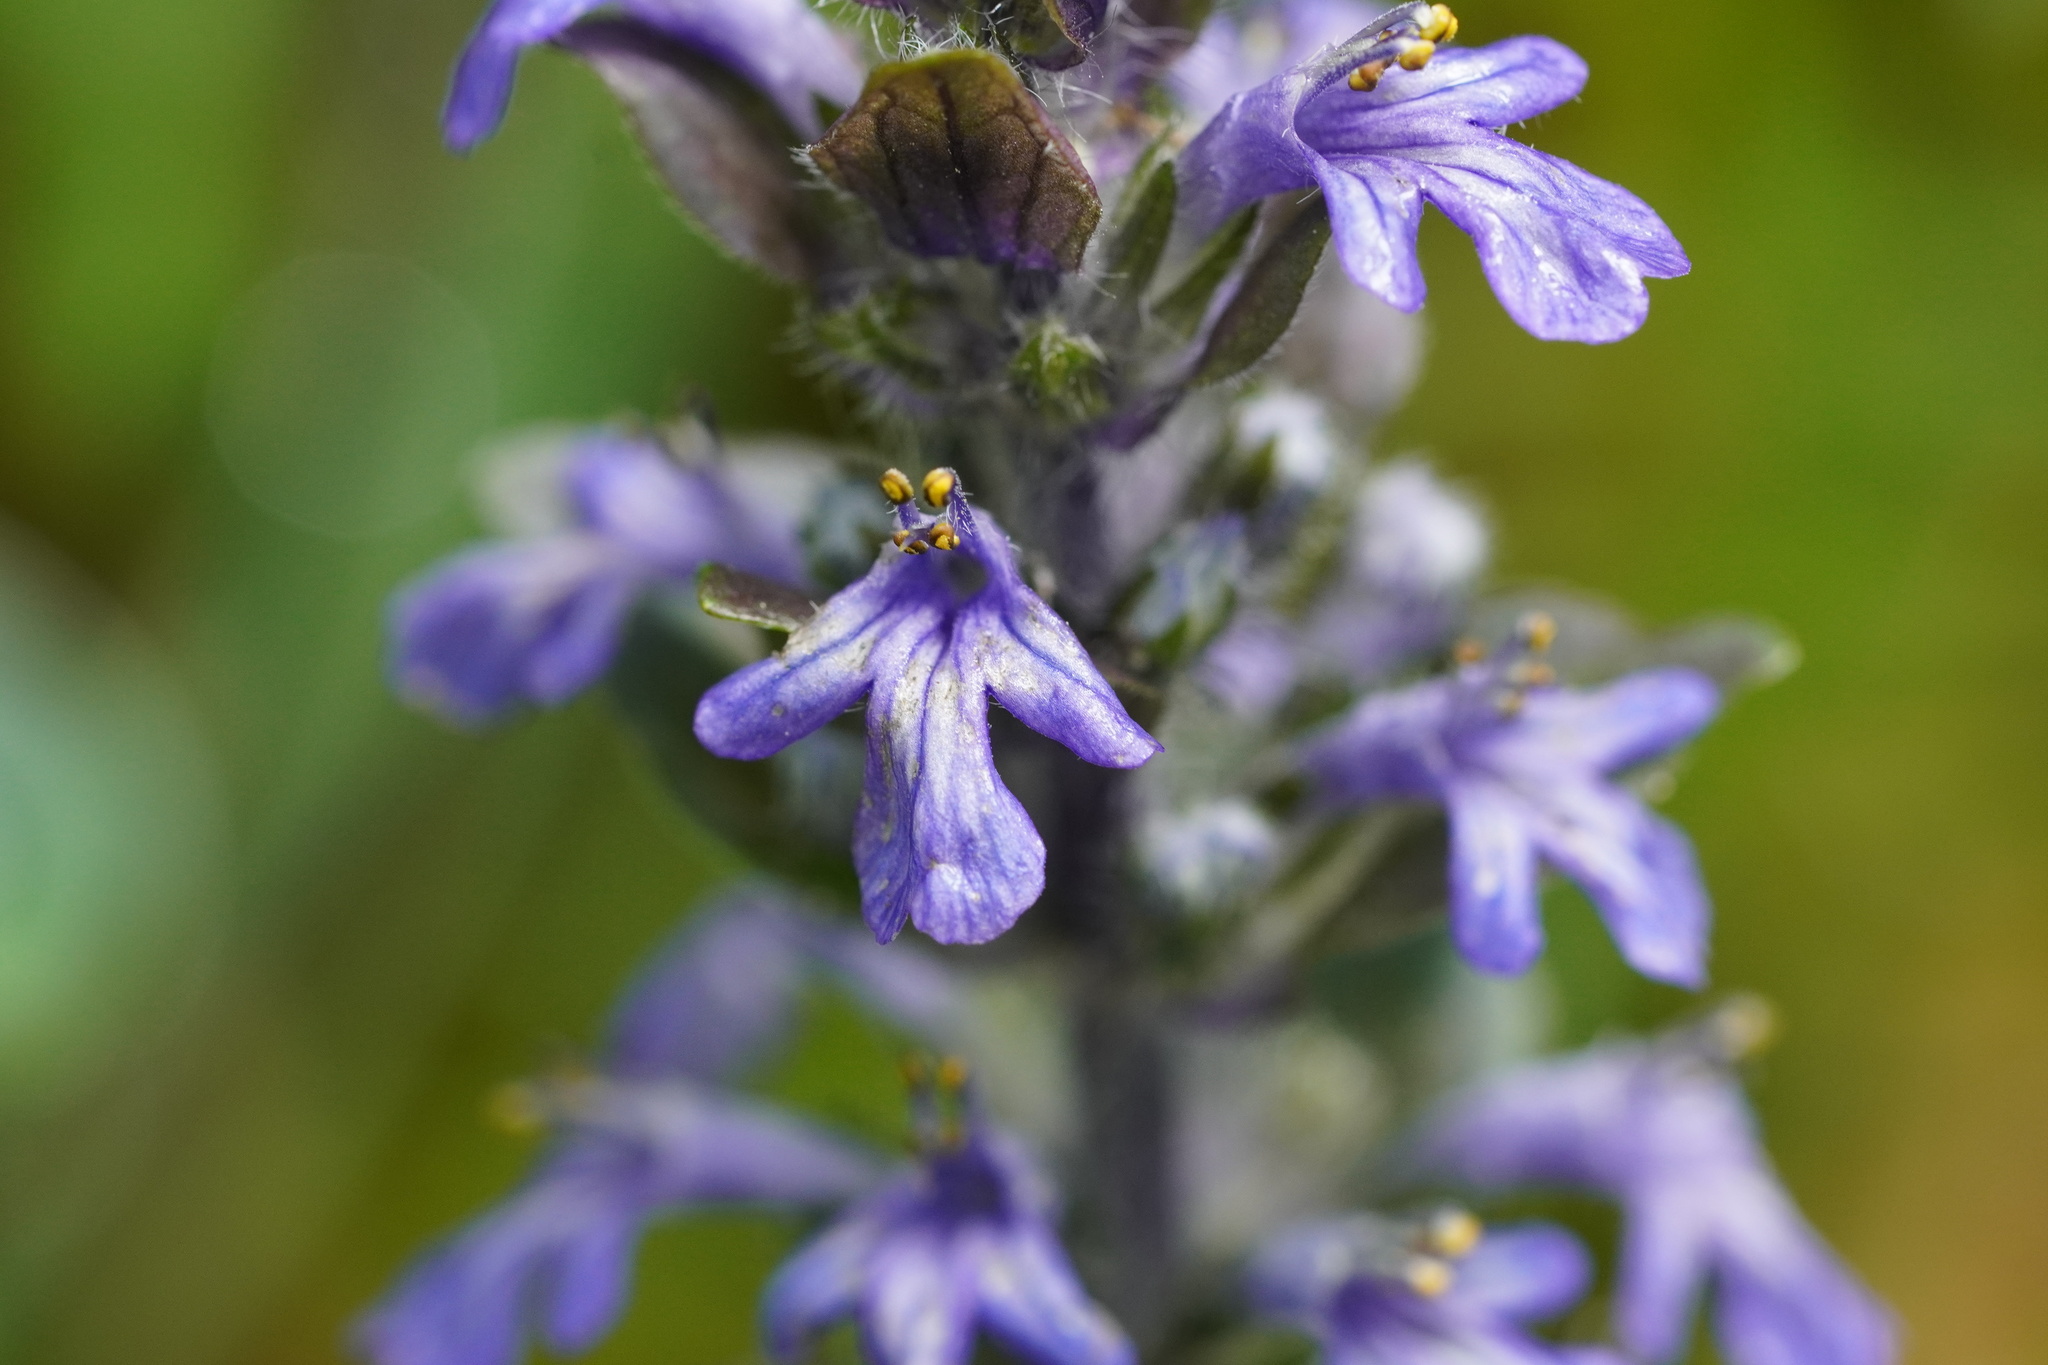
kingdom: Plantae
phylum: Tracheophyta
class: Magnoliopsida
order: Lamiales
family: Lamiaceae
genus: Ajuga
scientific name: Ajuga reptans
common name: Bugle
